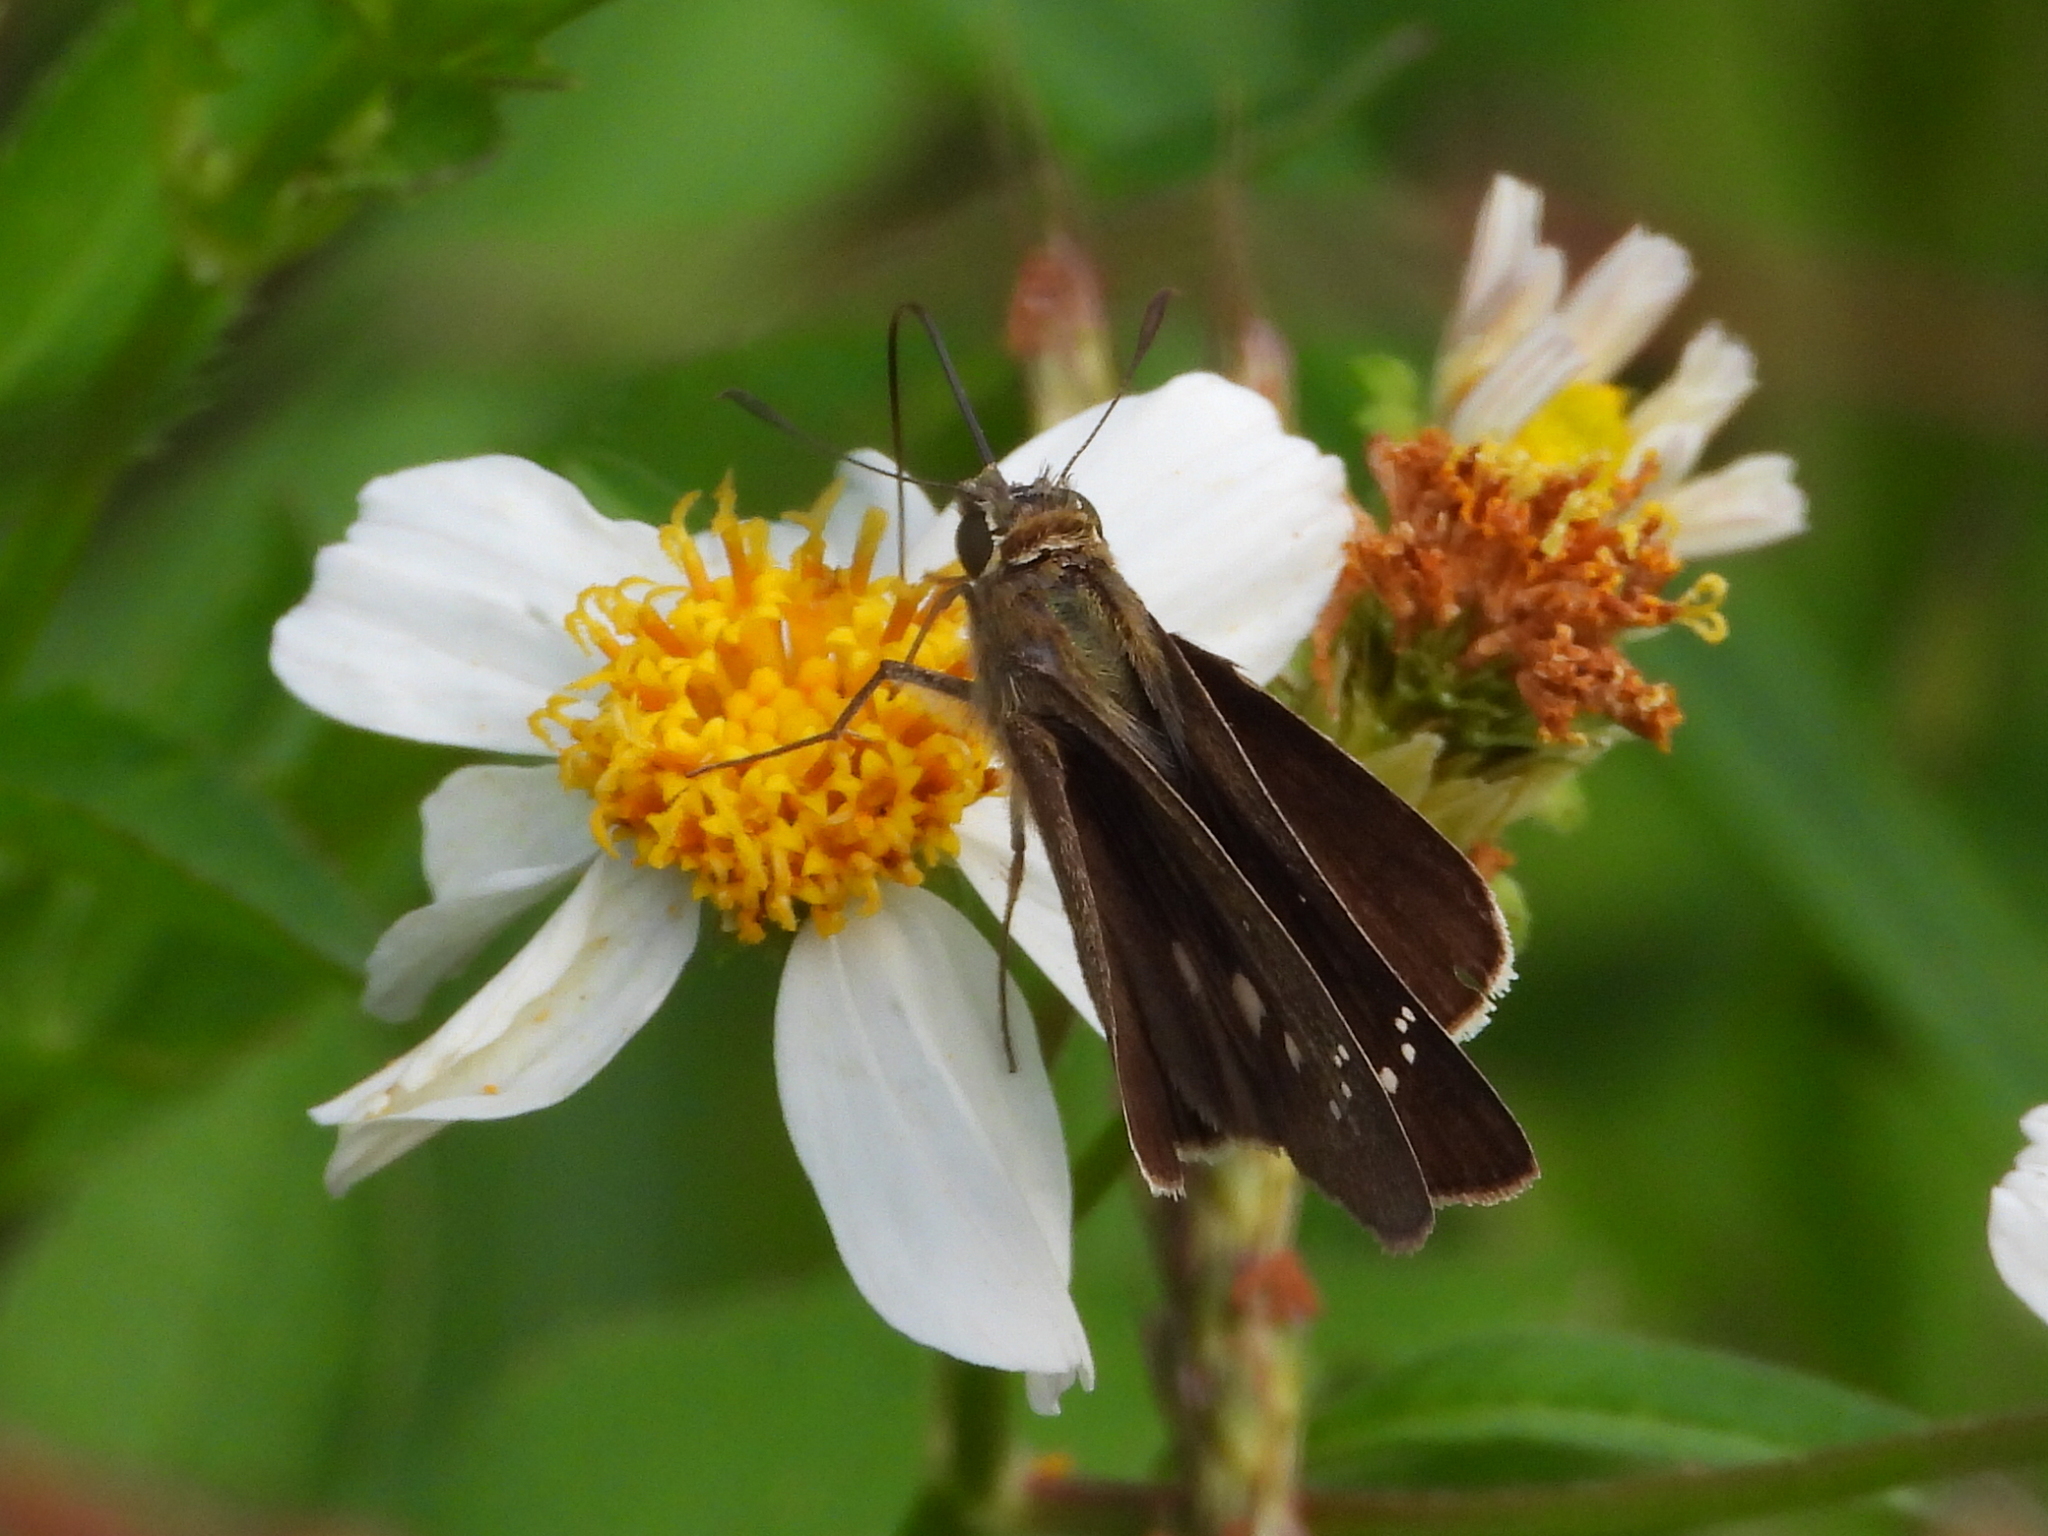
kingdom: Animalia
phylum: Arthropoda
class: Insecta
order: Lepidoptera
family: Hesperiidae
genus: Borbo
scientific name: Borbo cinnara
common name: Formosan swift
